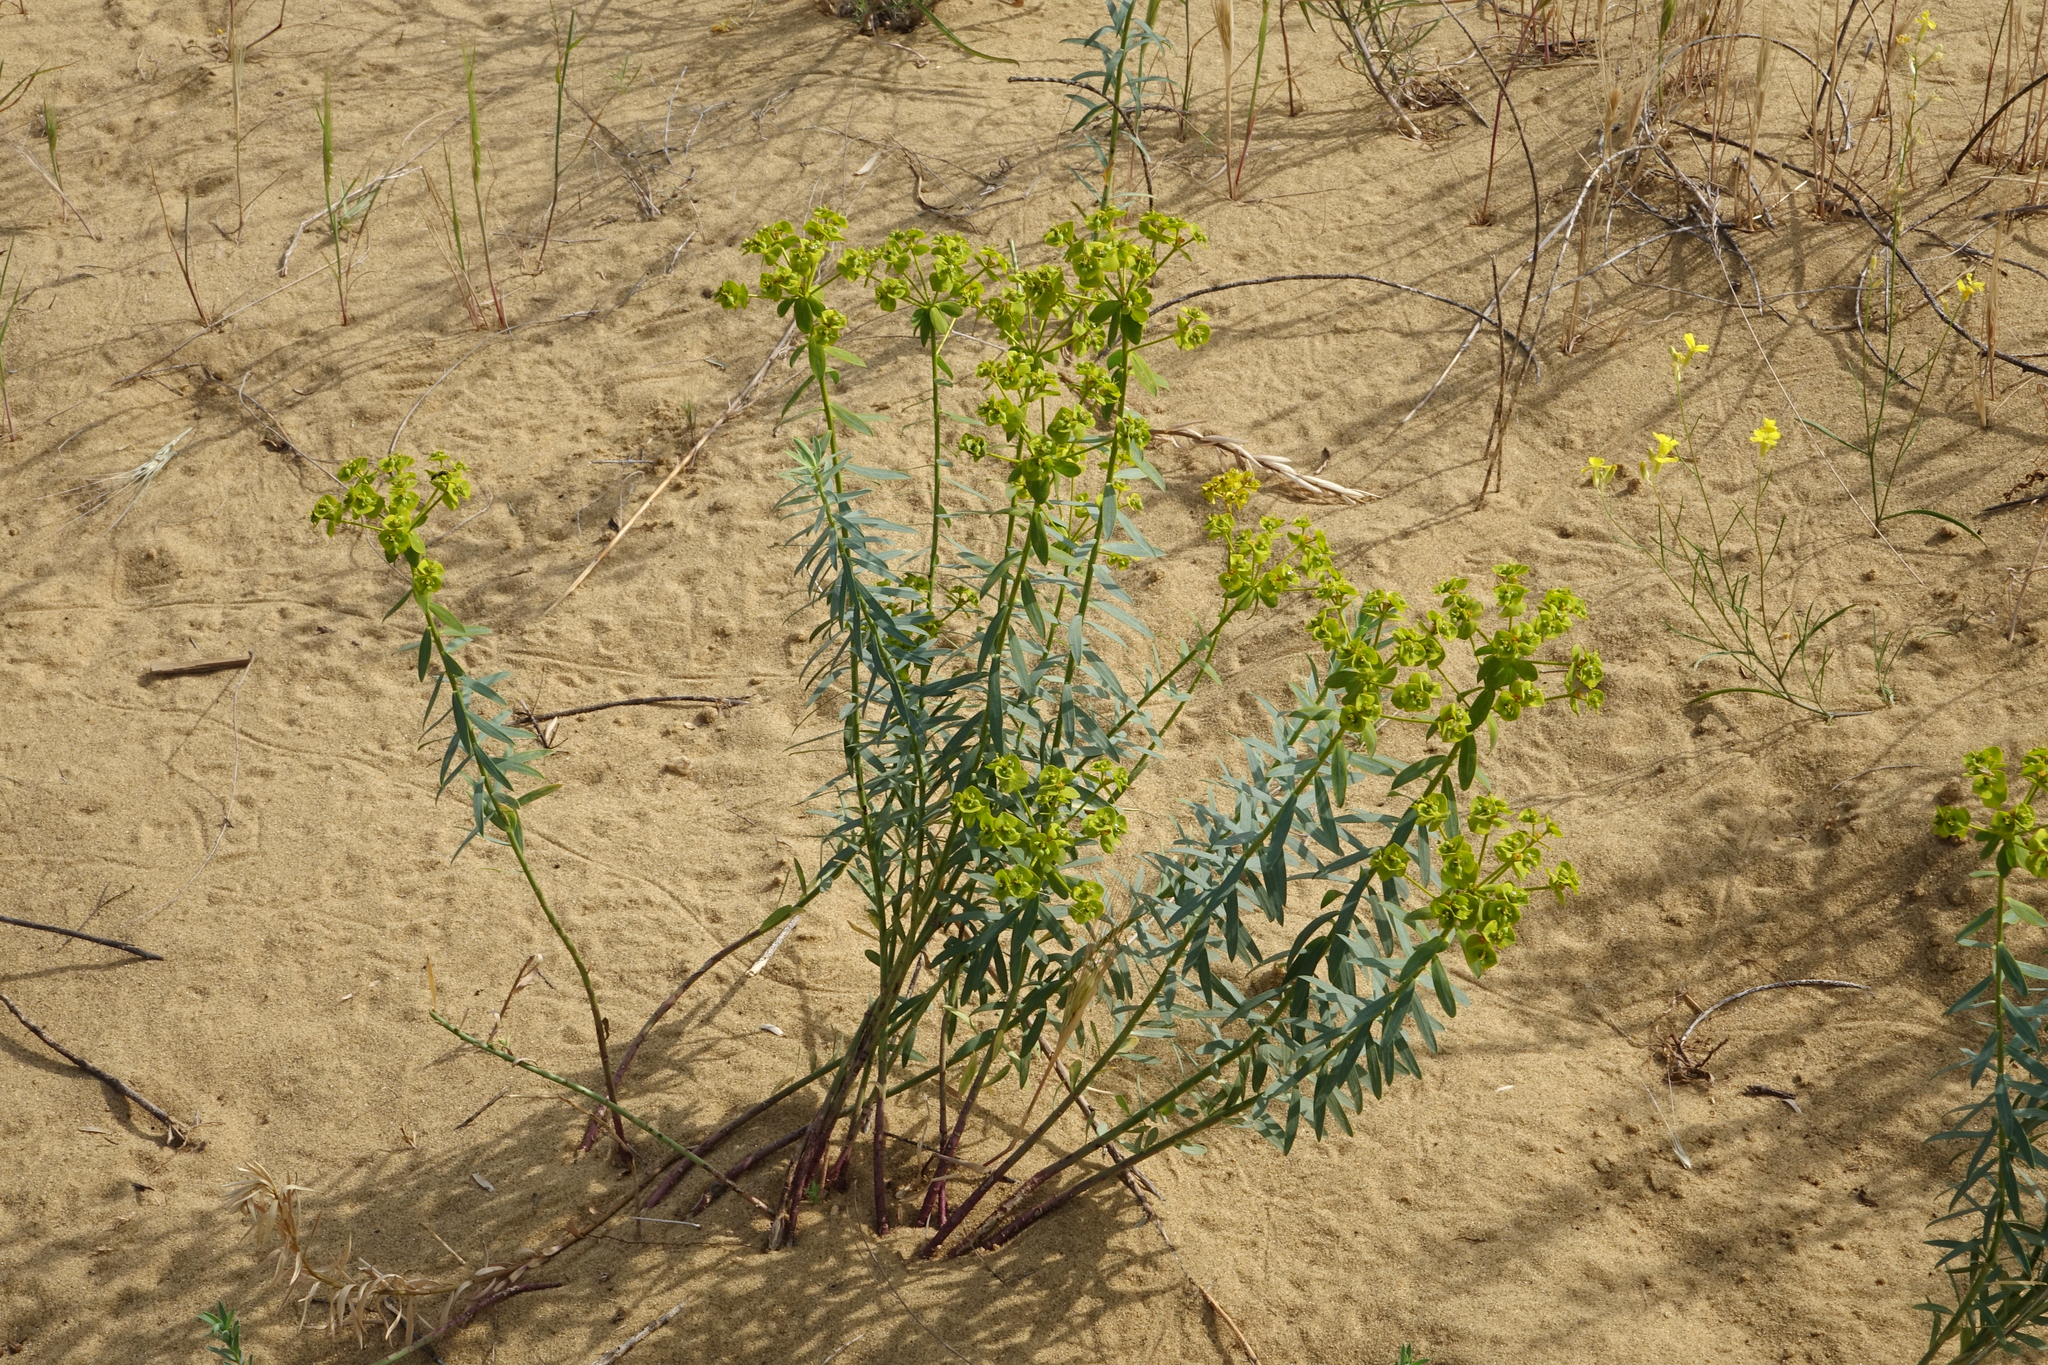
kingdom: Plantae
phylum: Tracheophyta
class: Magnoliopsida
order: Malpighiales
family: Euphorbiaceae
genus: Euphorbia
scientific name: Euphorbia seguieriana
